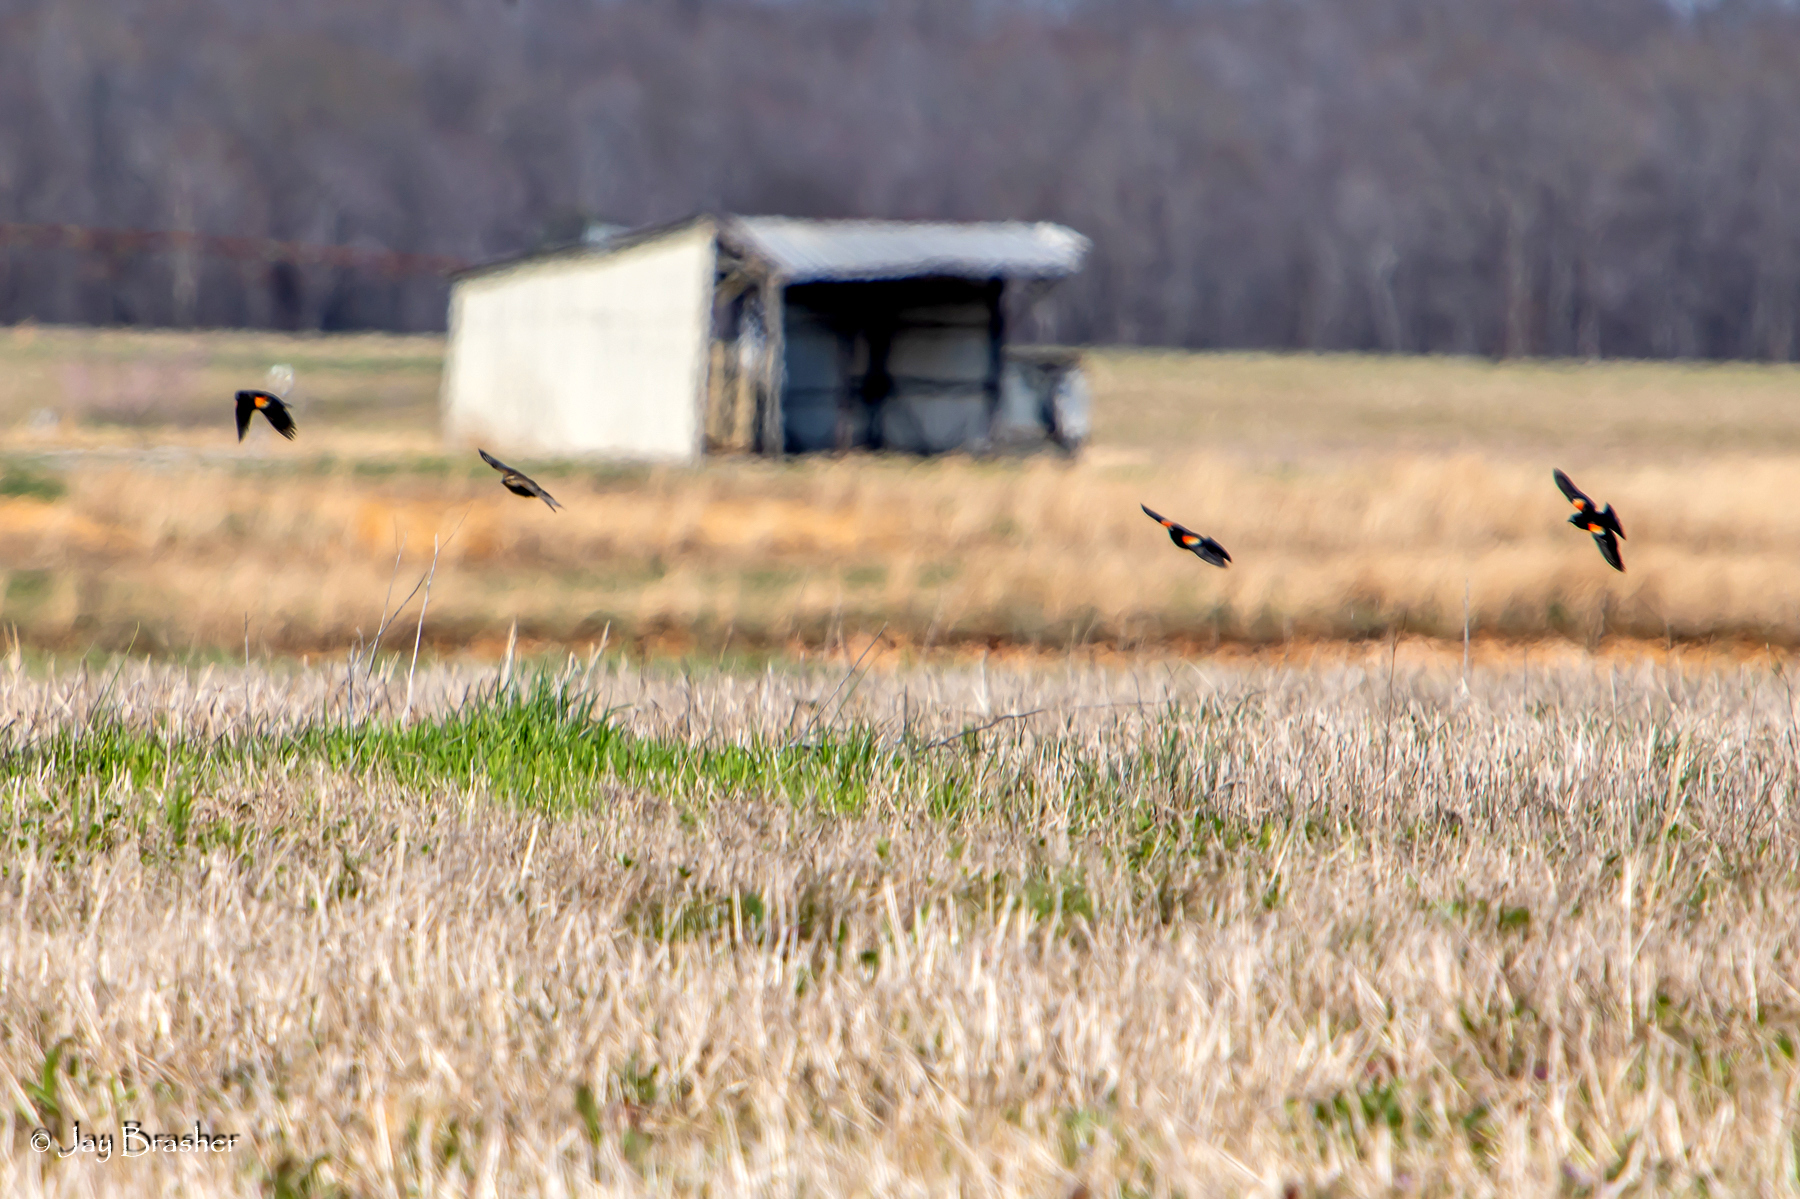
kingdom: Animalia
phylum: Chordata
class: Aves
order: Passeriformes
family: Icteridae
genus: Agelaius
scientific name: Agelaius phoeniceus
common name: Red-winged blackbird
